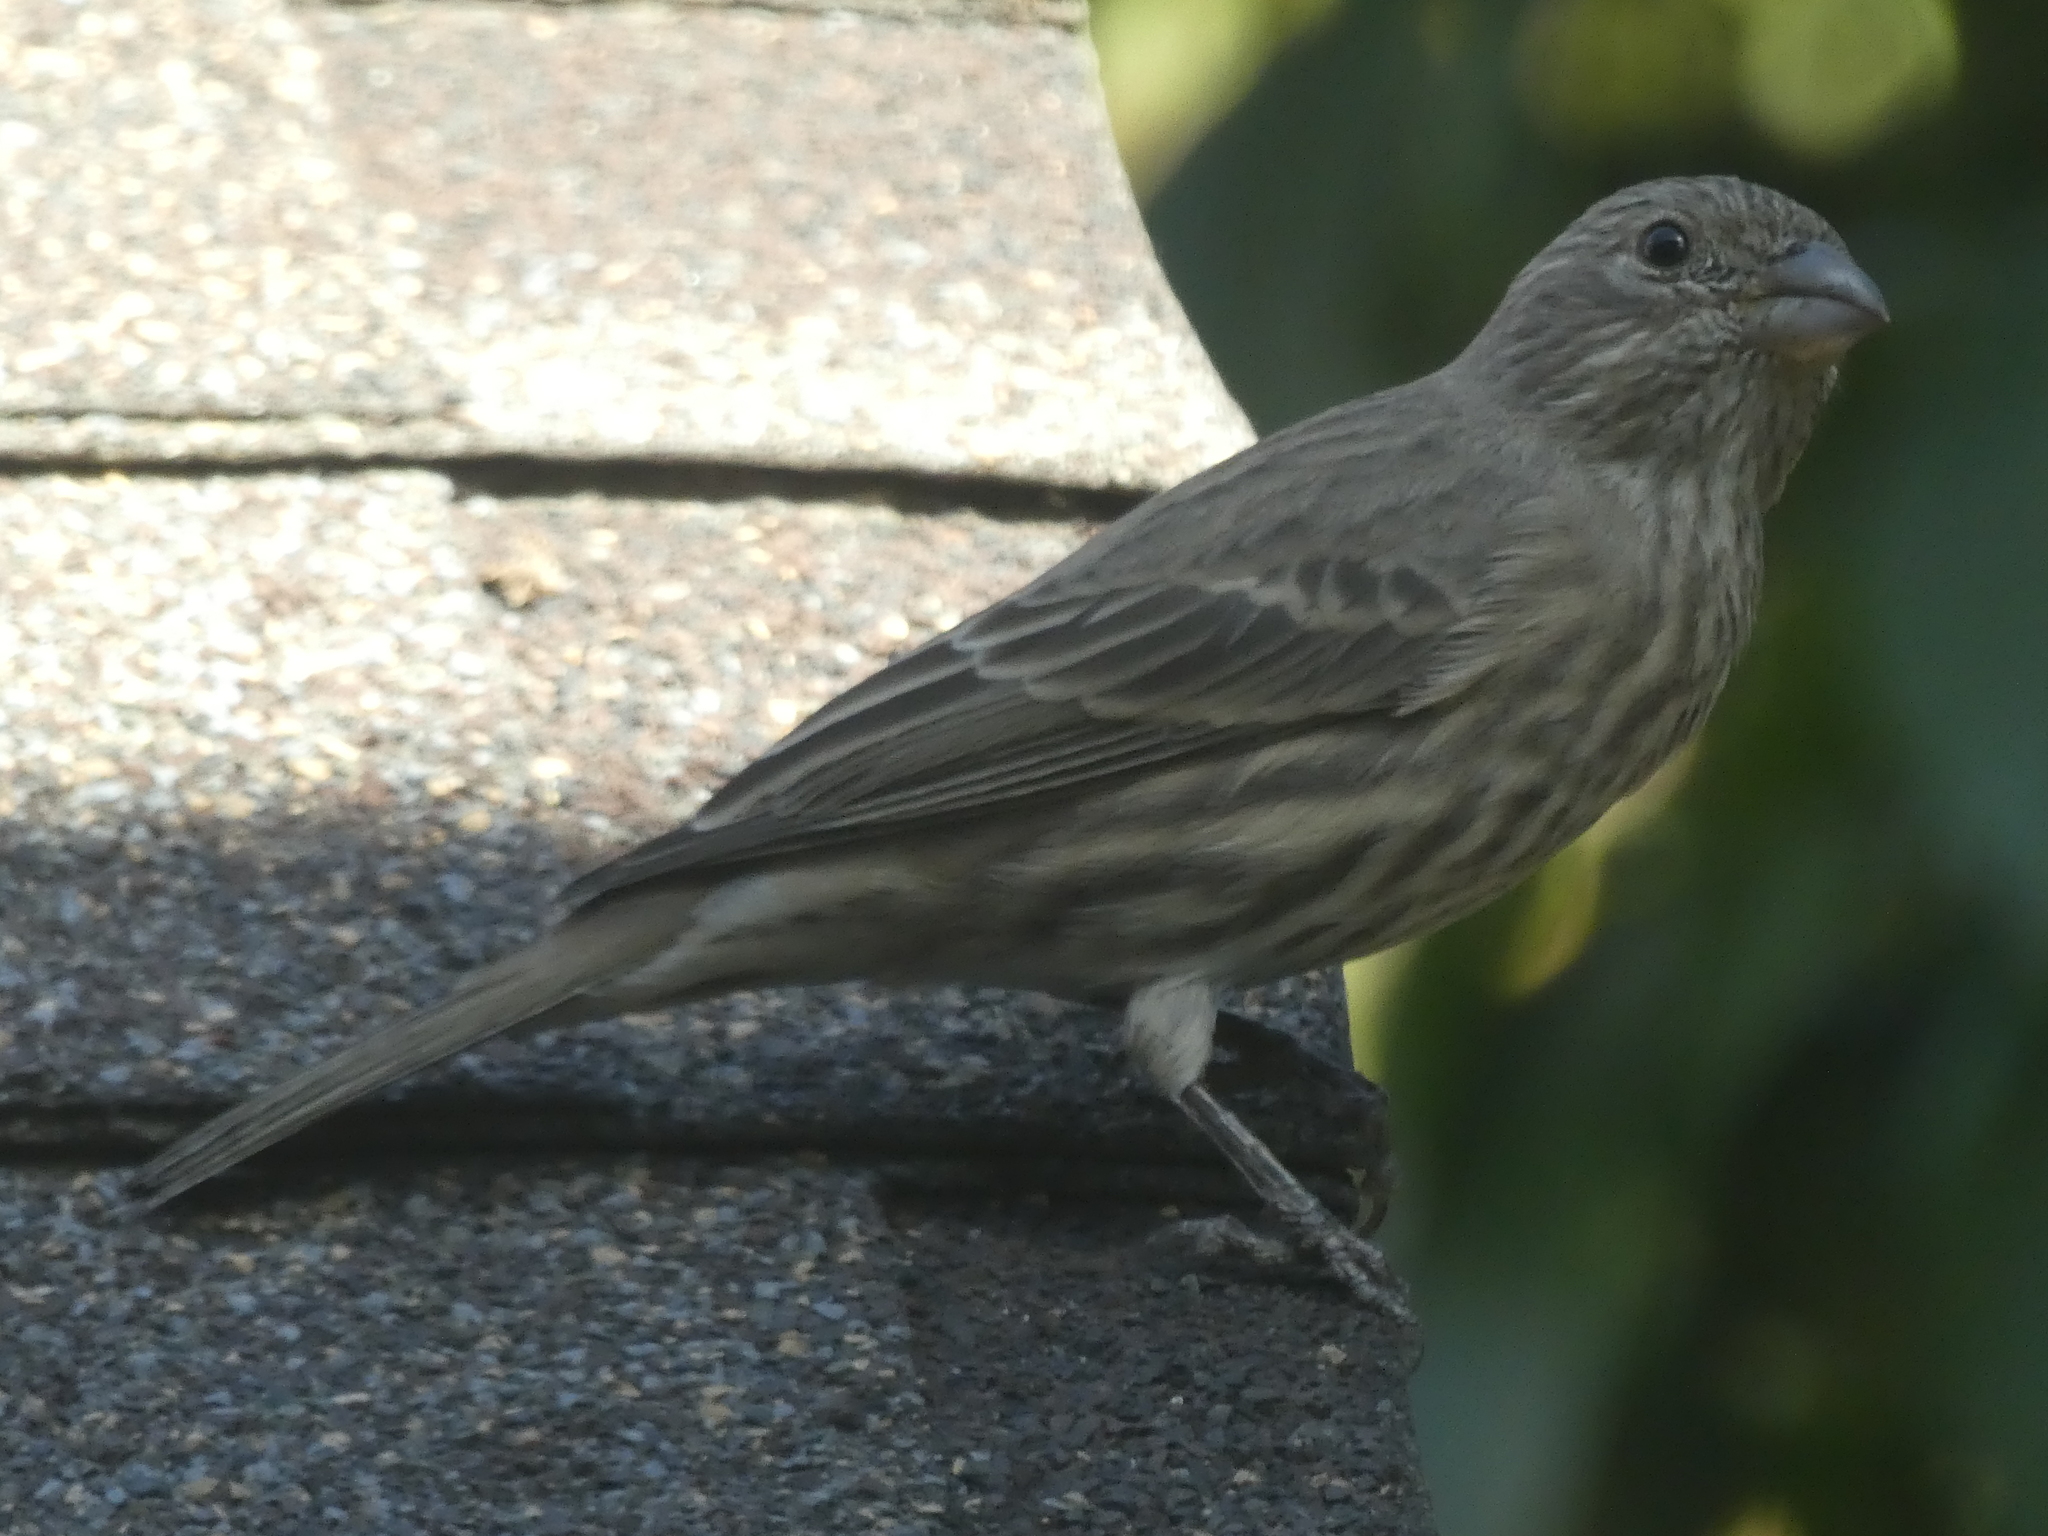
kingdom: Animalia
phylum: Chordata
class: Aves
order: Passeriformes
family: Fringillidae
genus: Haemorhous
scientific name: Haemorhous mexicanus
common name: House finch
